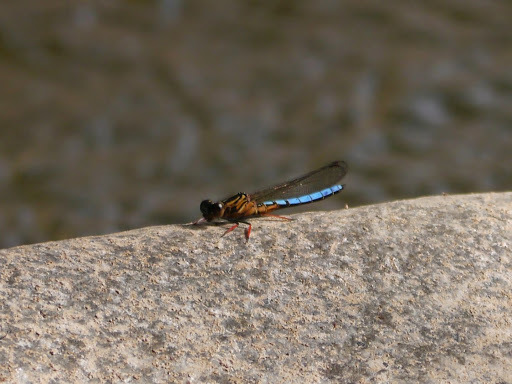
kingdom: Animalia
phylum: Arthropoda
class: Insecta
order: Odonata
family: Chlorocyphidae
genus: Platycypha
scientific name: Platycypha caligata
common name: Dancing jewel
